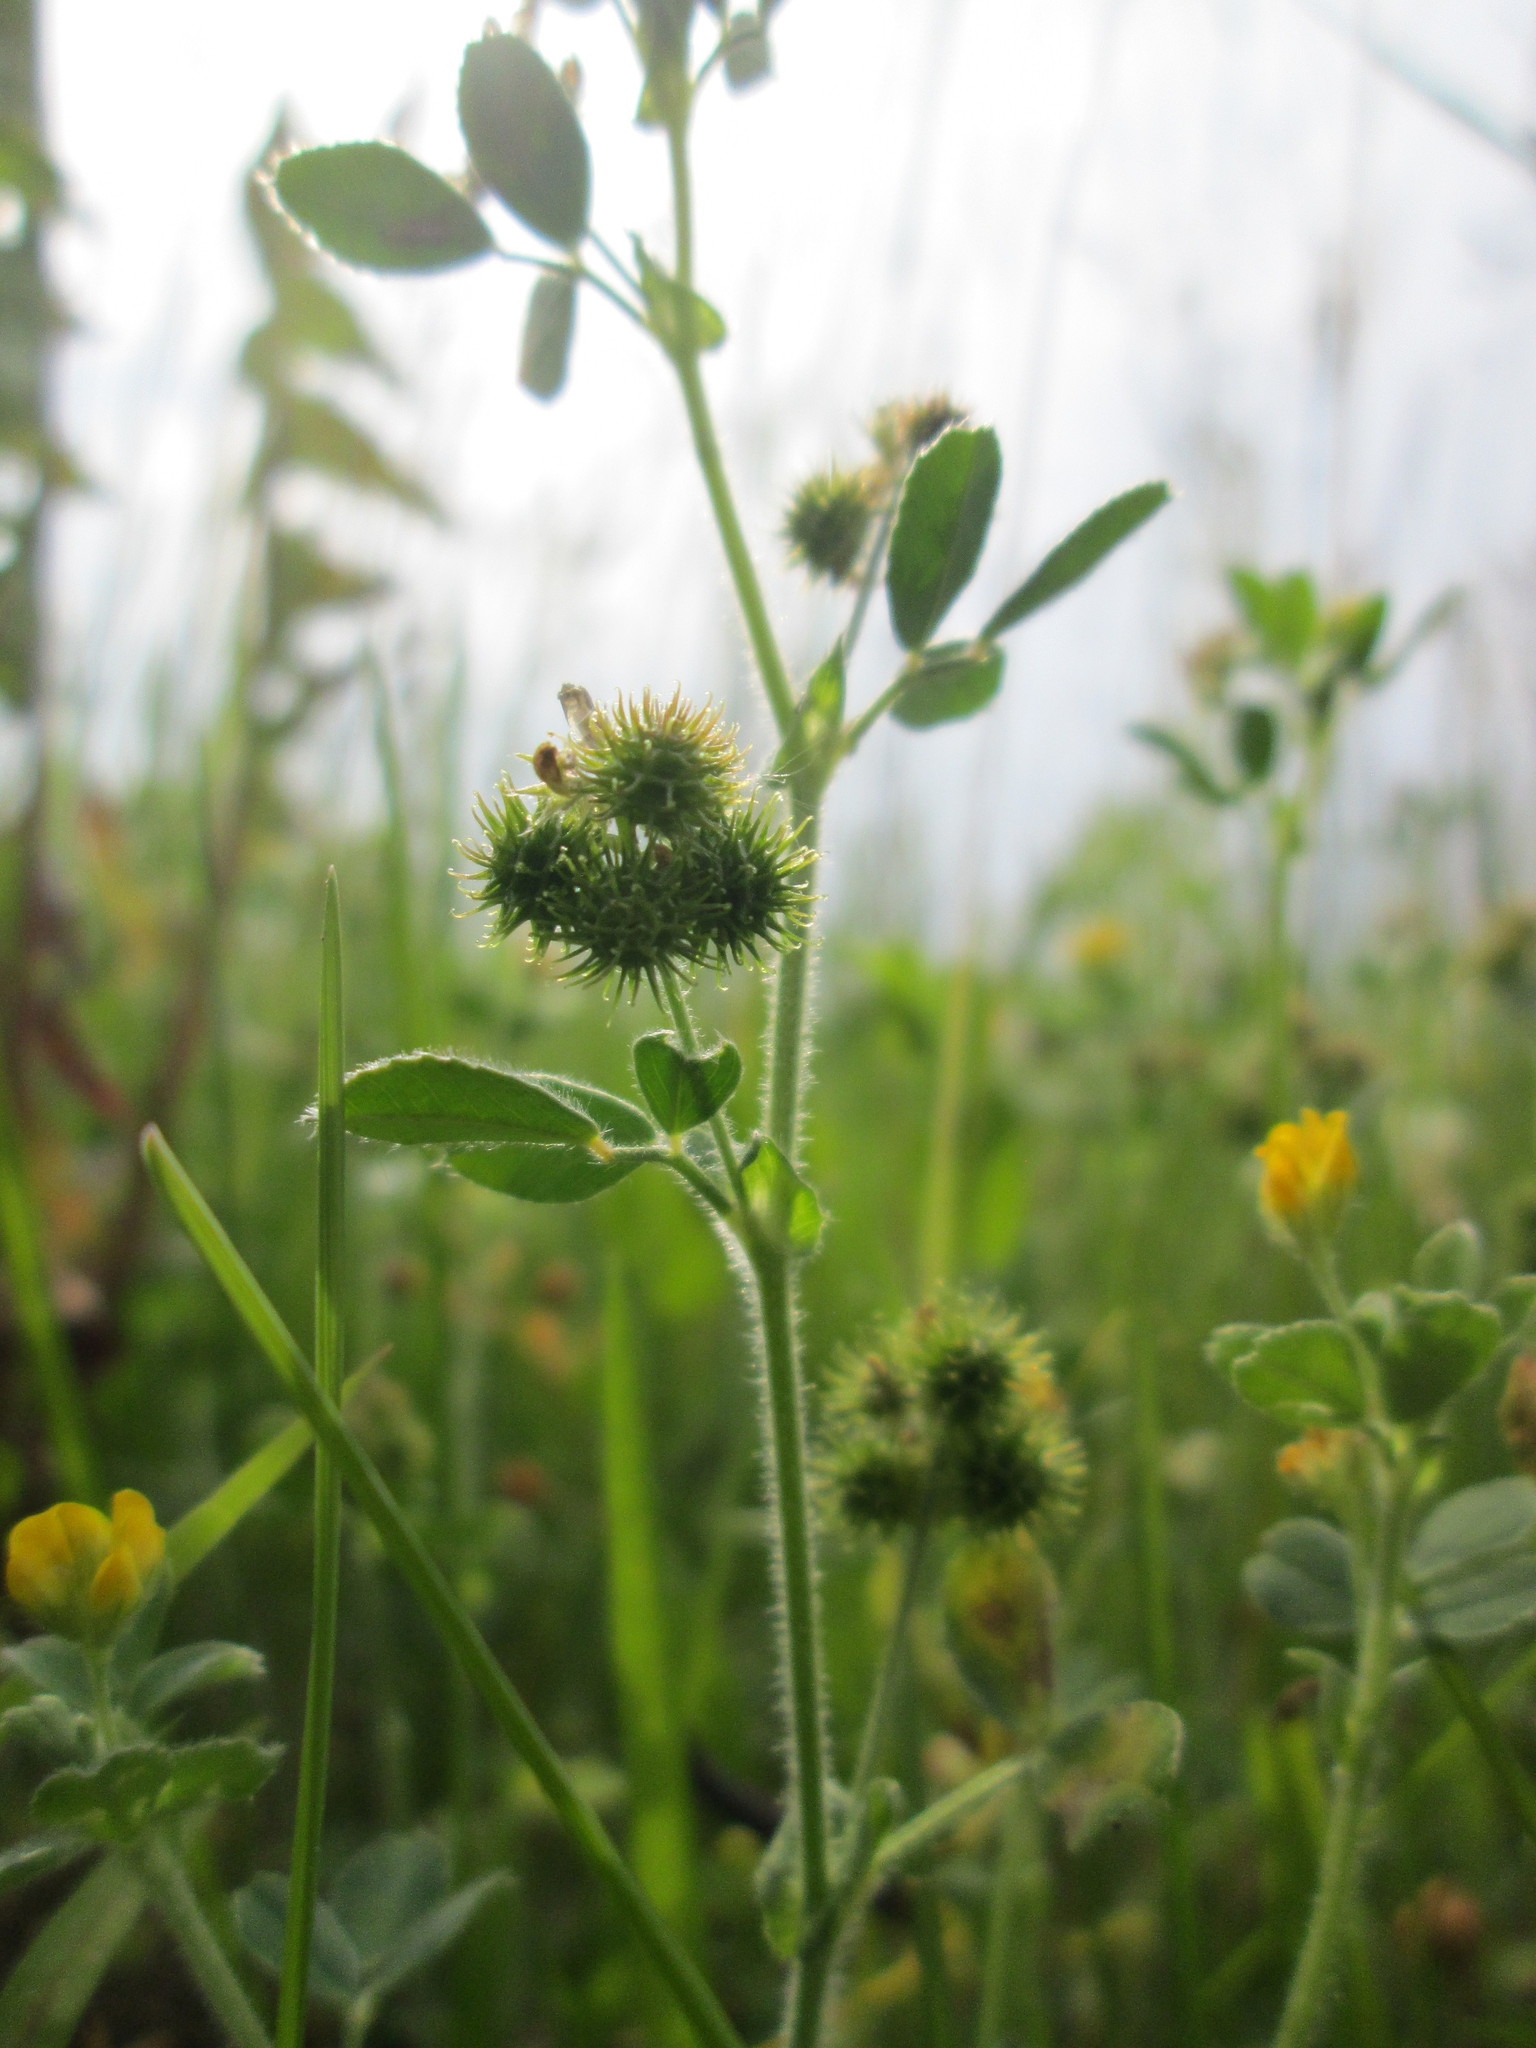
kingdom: Plantae
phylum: Tracheophyta
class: Magnoliopsida
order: Fabales
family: Fabaceae
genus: Medicago
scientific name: Medicago minima
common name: Little bur-clover
